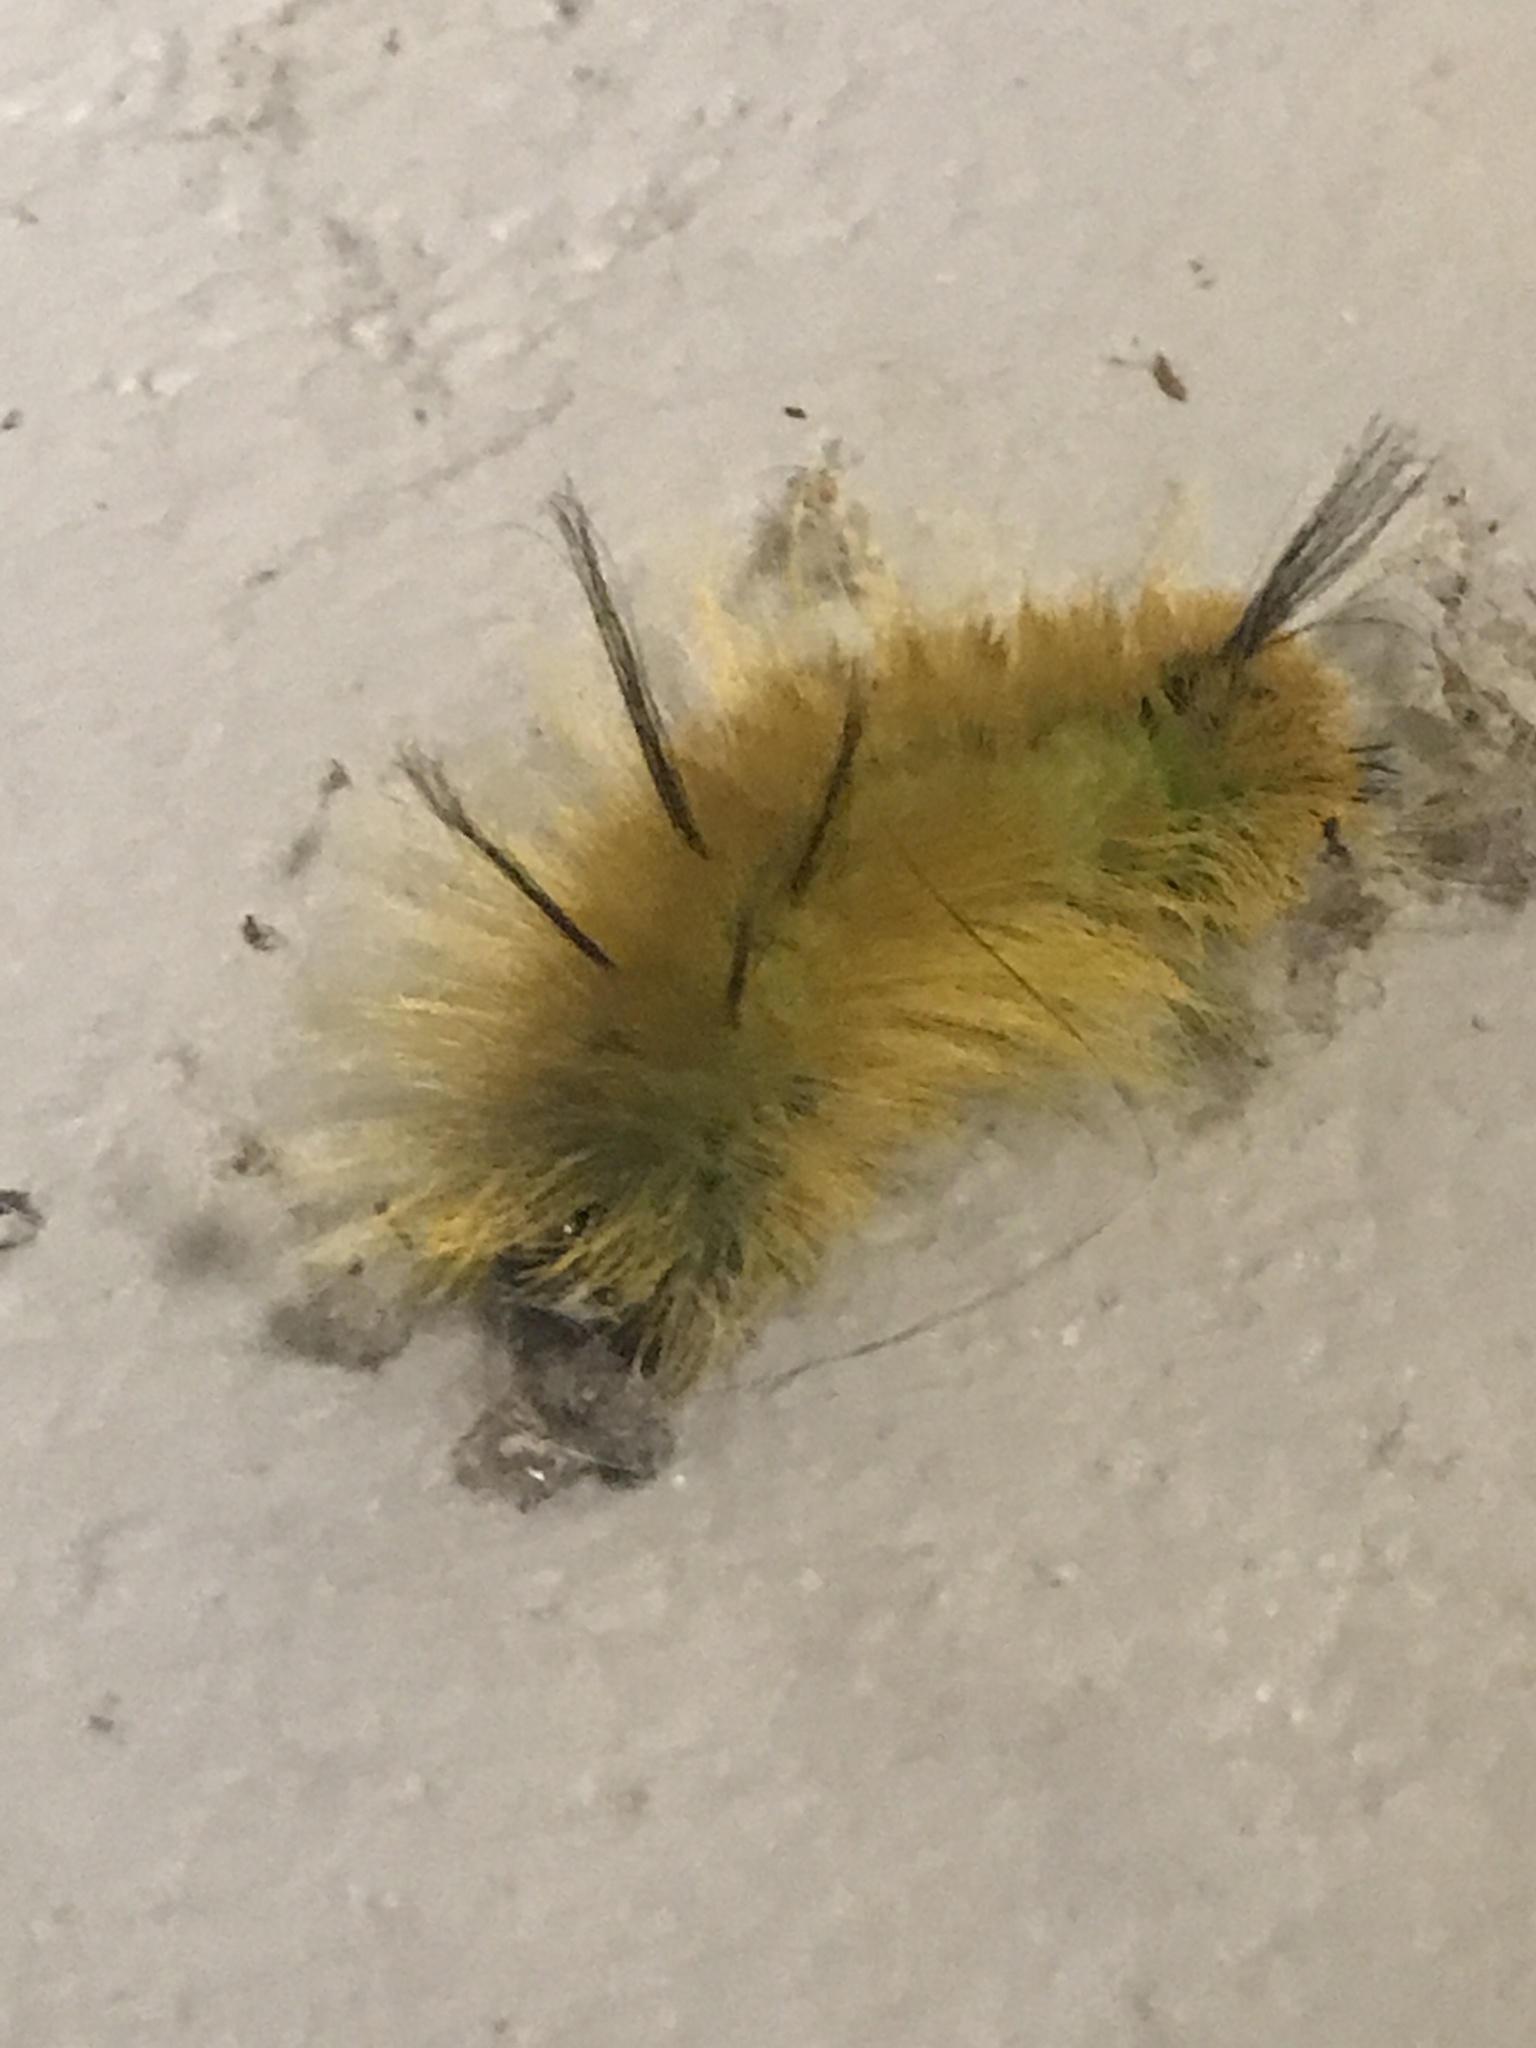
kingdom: Animalia
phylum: Arthropoda
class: Insecta
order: Lepidoptera
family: Noctuidae
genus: Acronicta
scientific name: Acronicta americana
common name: American dagger
